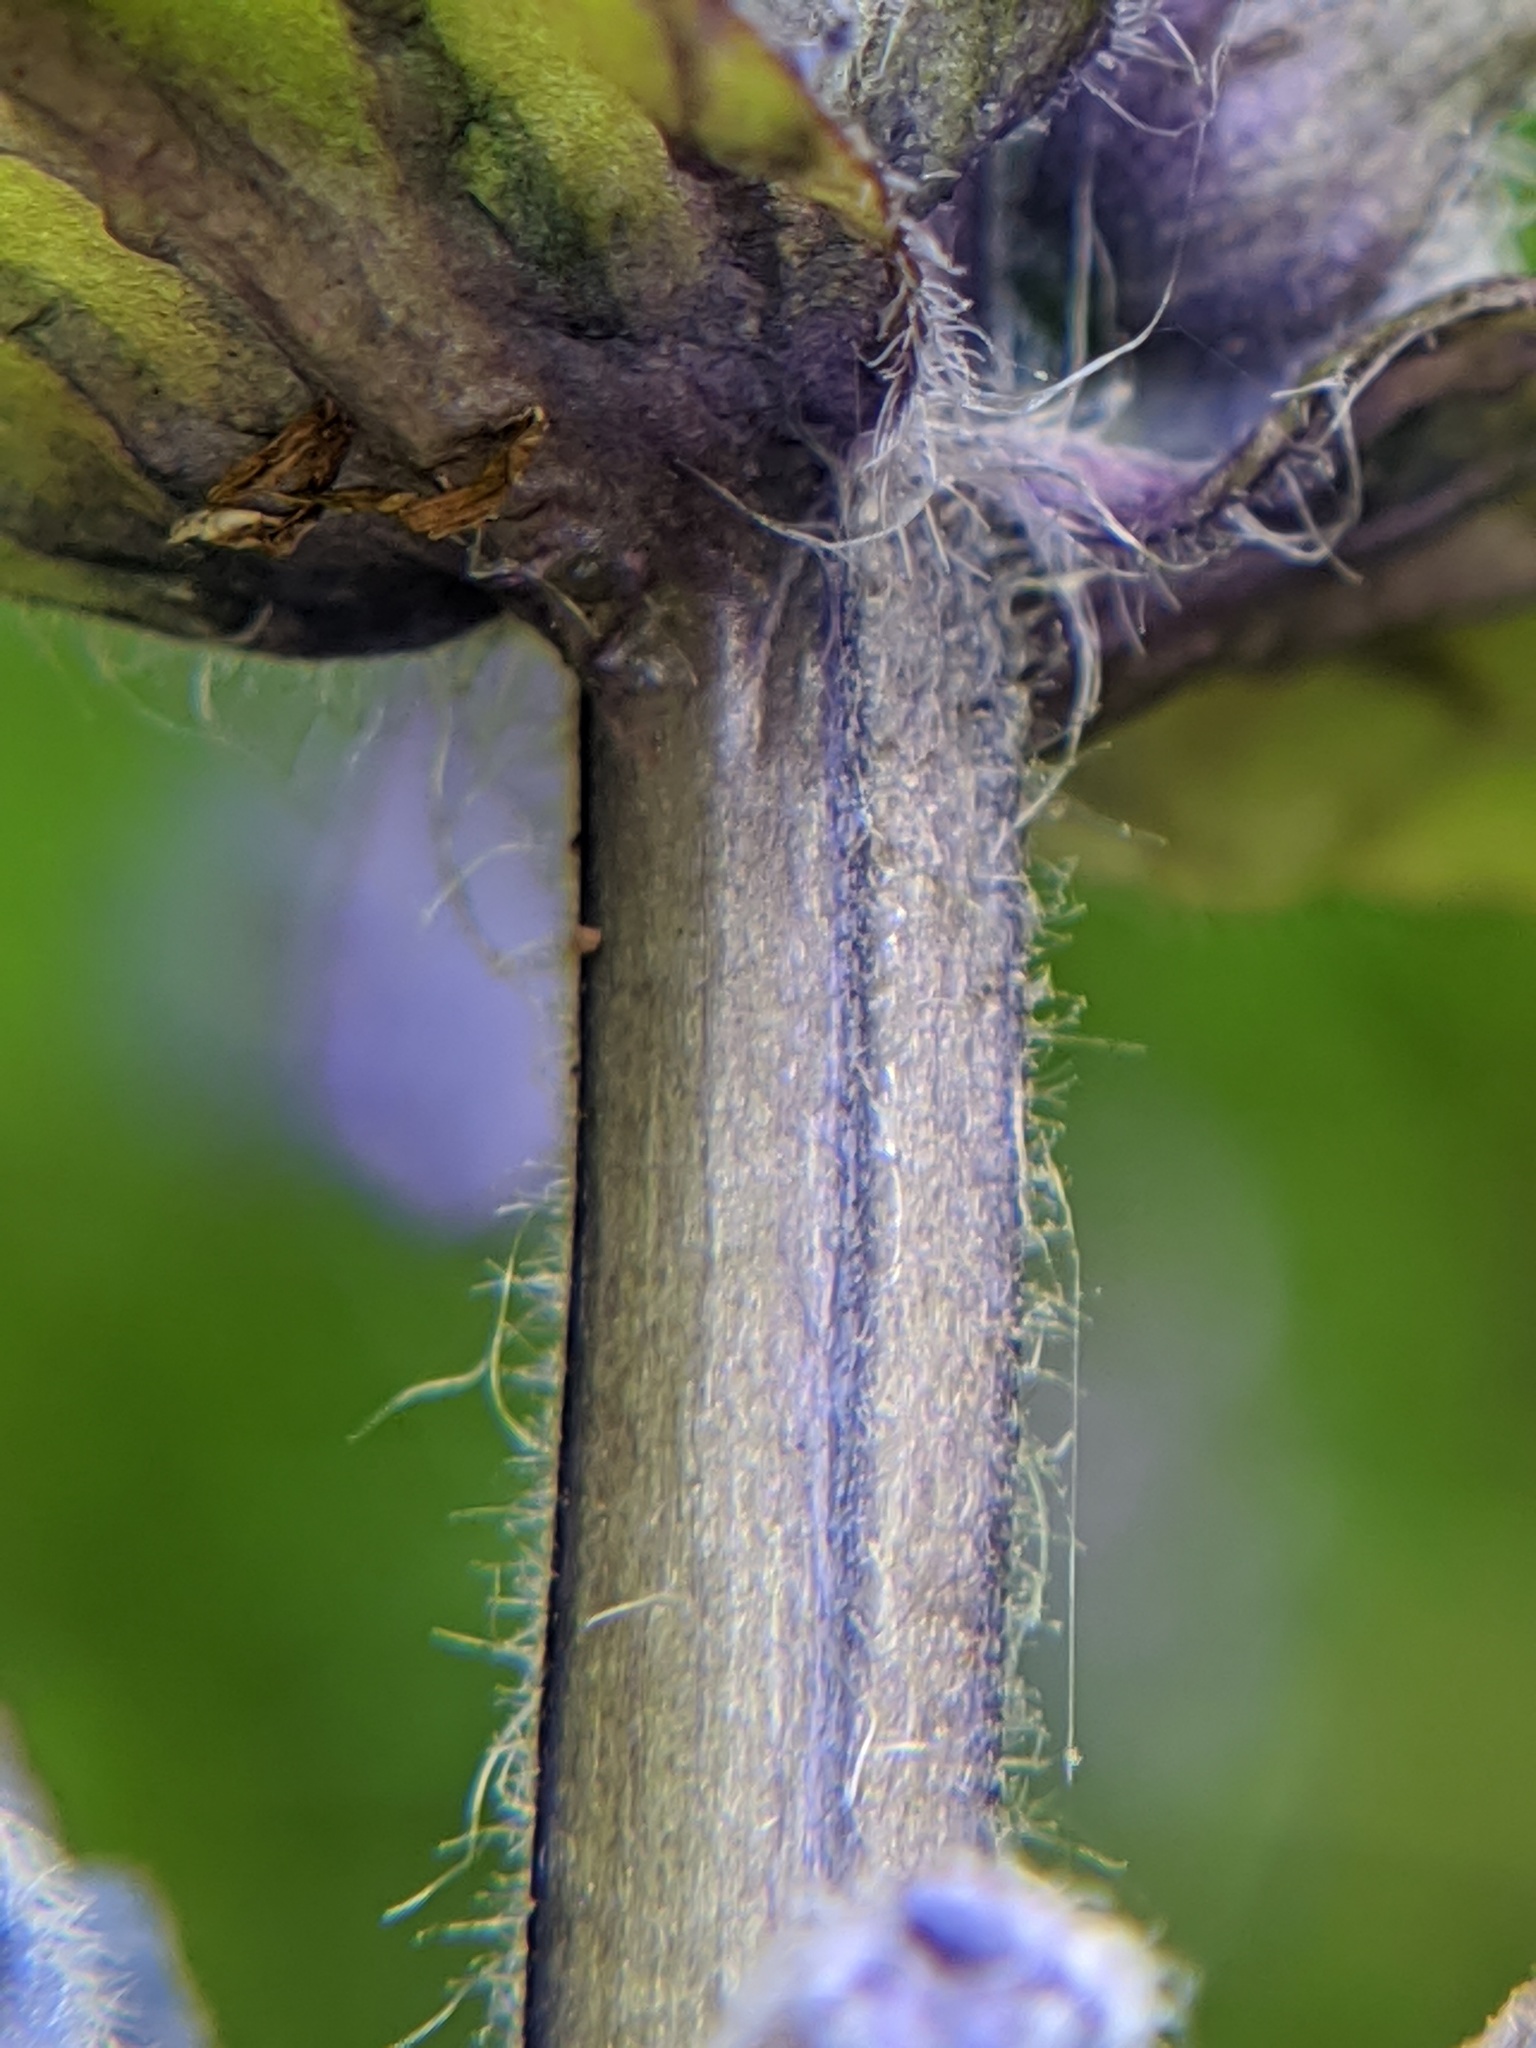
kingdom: Plantae
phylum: Tracheophyta
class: Magnoliopsida
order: Lamiales
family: Lamiaceae
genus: Ajuga
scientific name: Ajuga reptans
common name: Bugle
